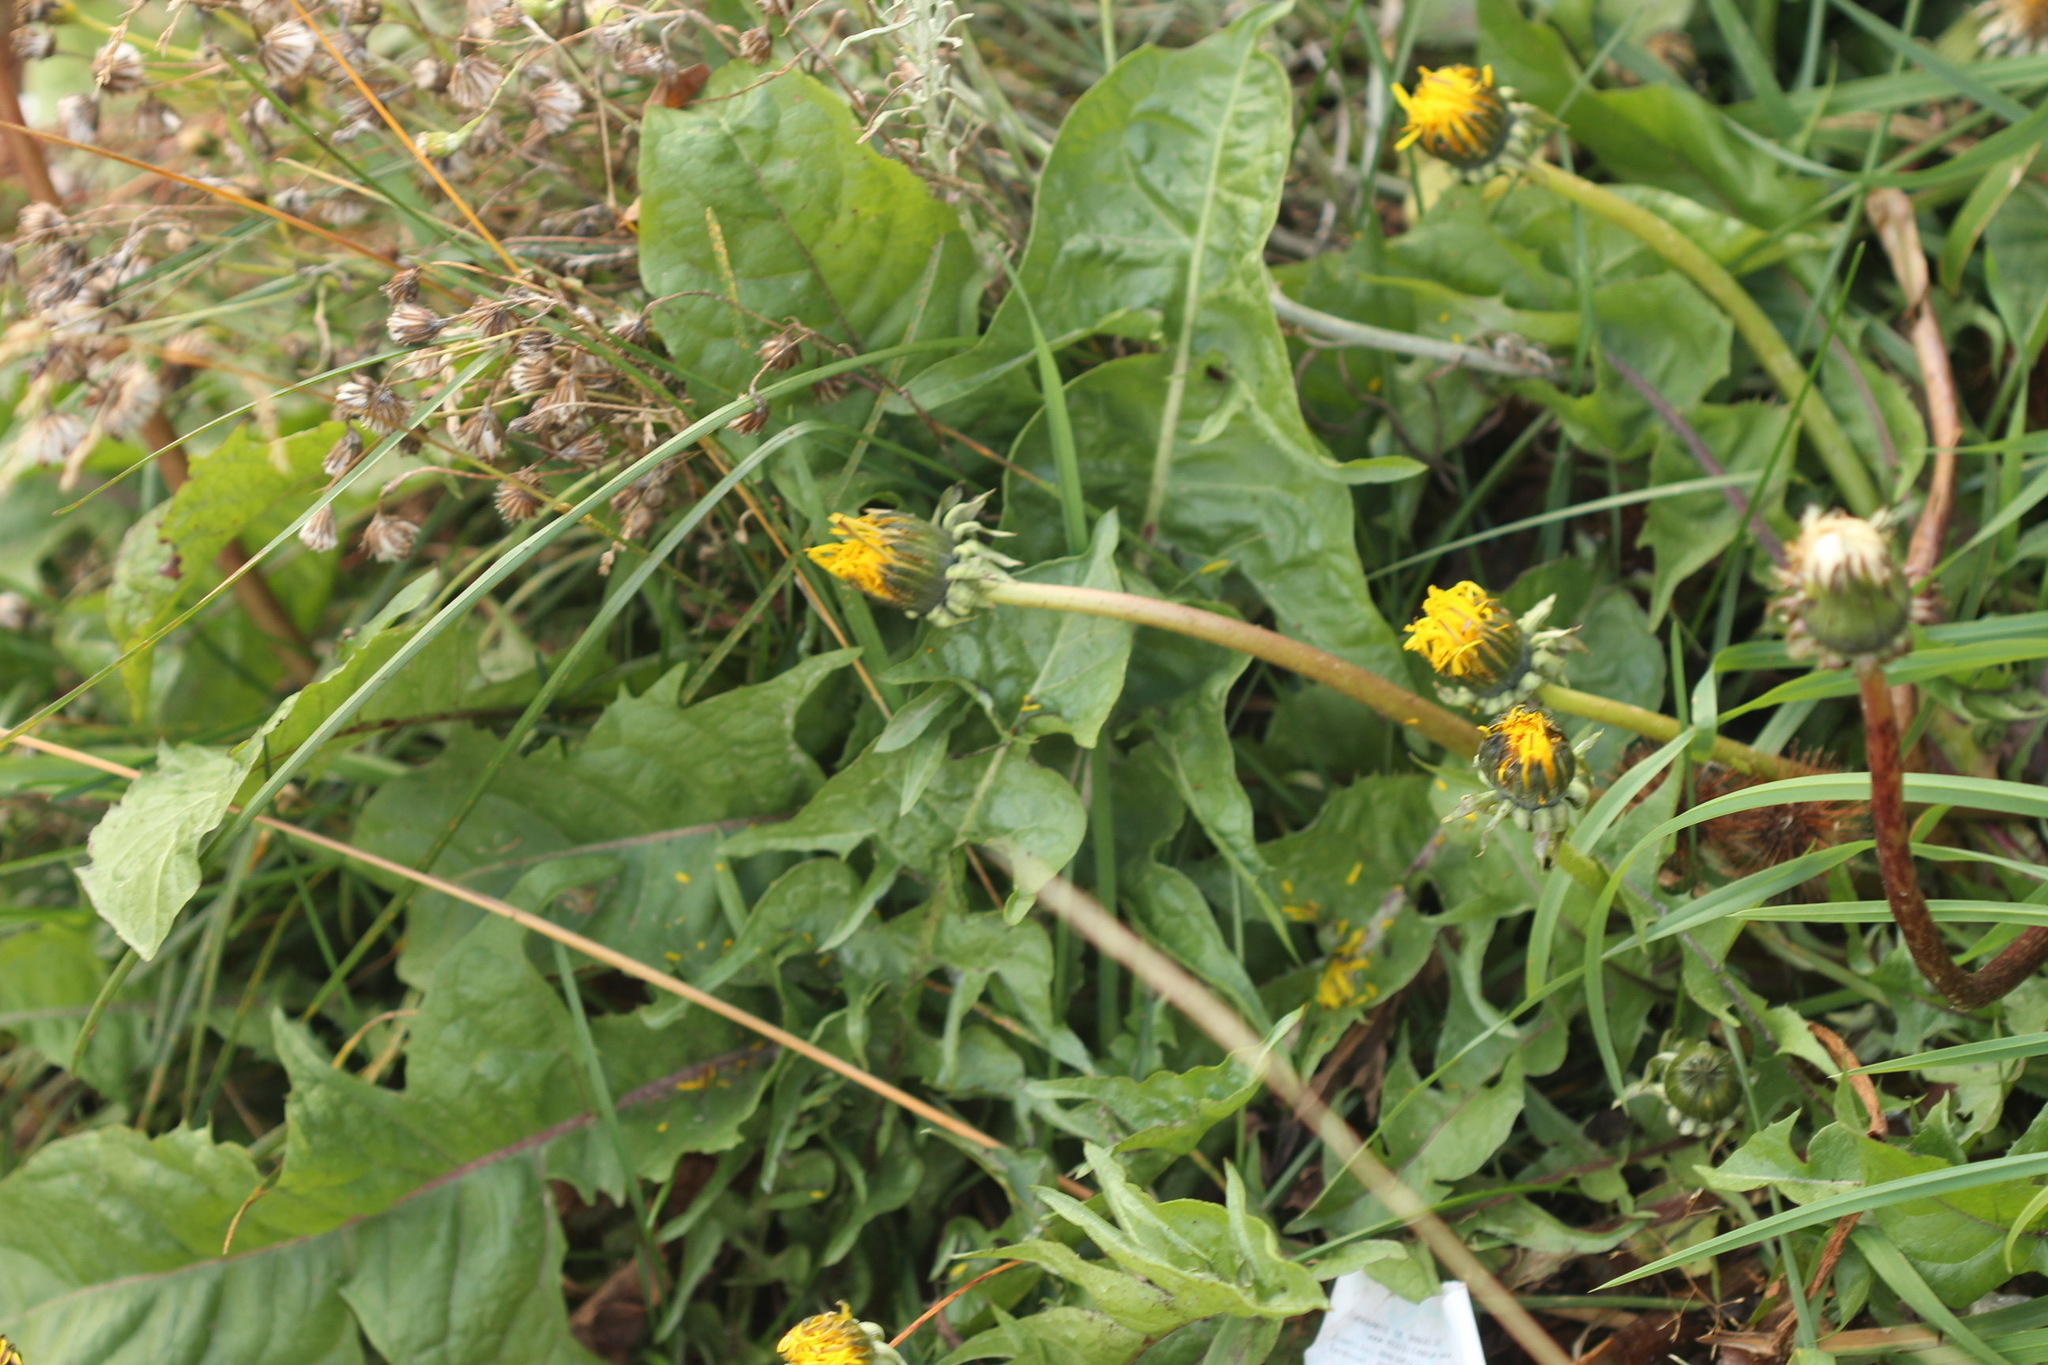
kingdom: Plantae
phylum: Tracheophyta
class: Magnoliopsida
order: Asterales
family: Asteraceae
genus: Taraxacum
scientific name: Taraxacum officinale
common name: Common dandelion
